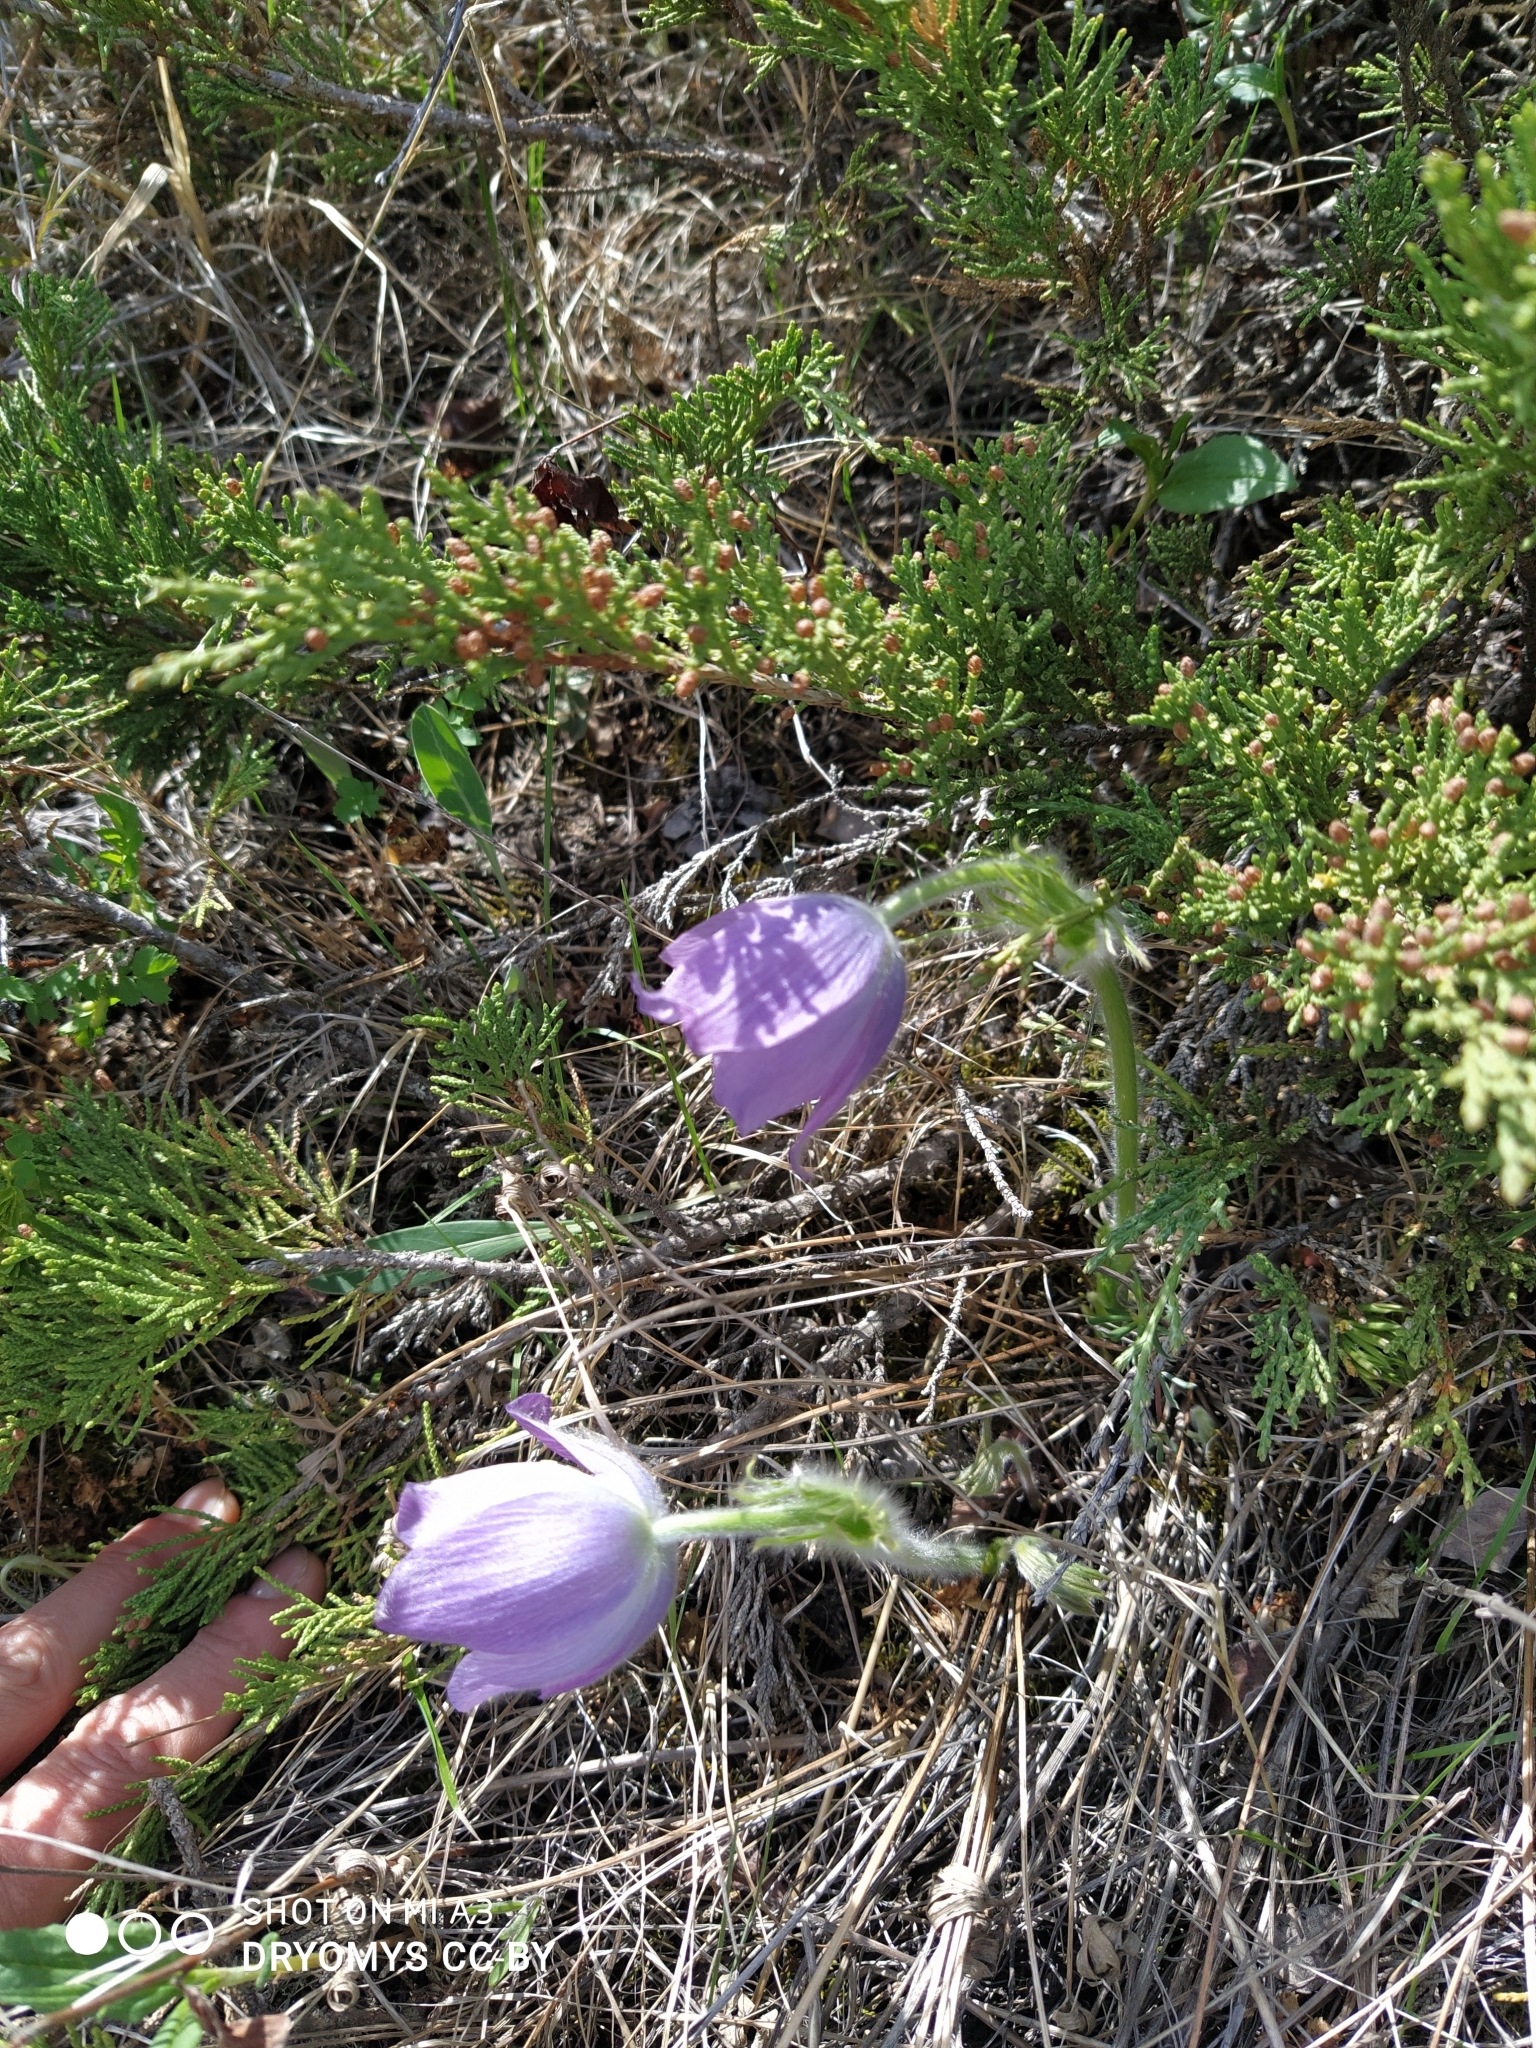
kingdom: Plantae
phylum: Tracheophyta
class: Magnoliopsida
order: Ranunculales
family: Ranunculaceae
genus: Pulsatilla
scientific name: Pulsatilla patens
